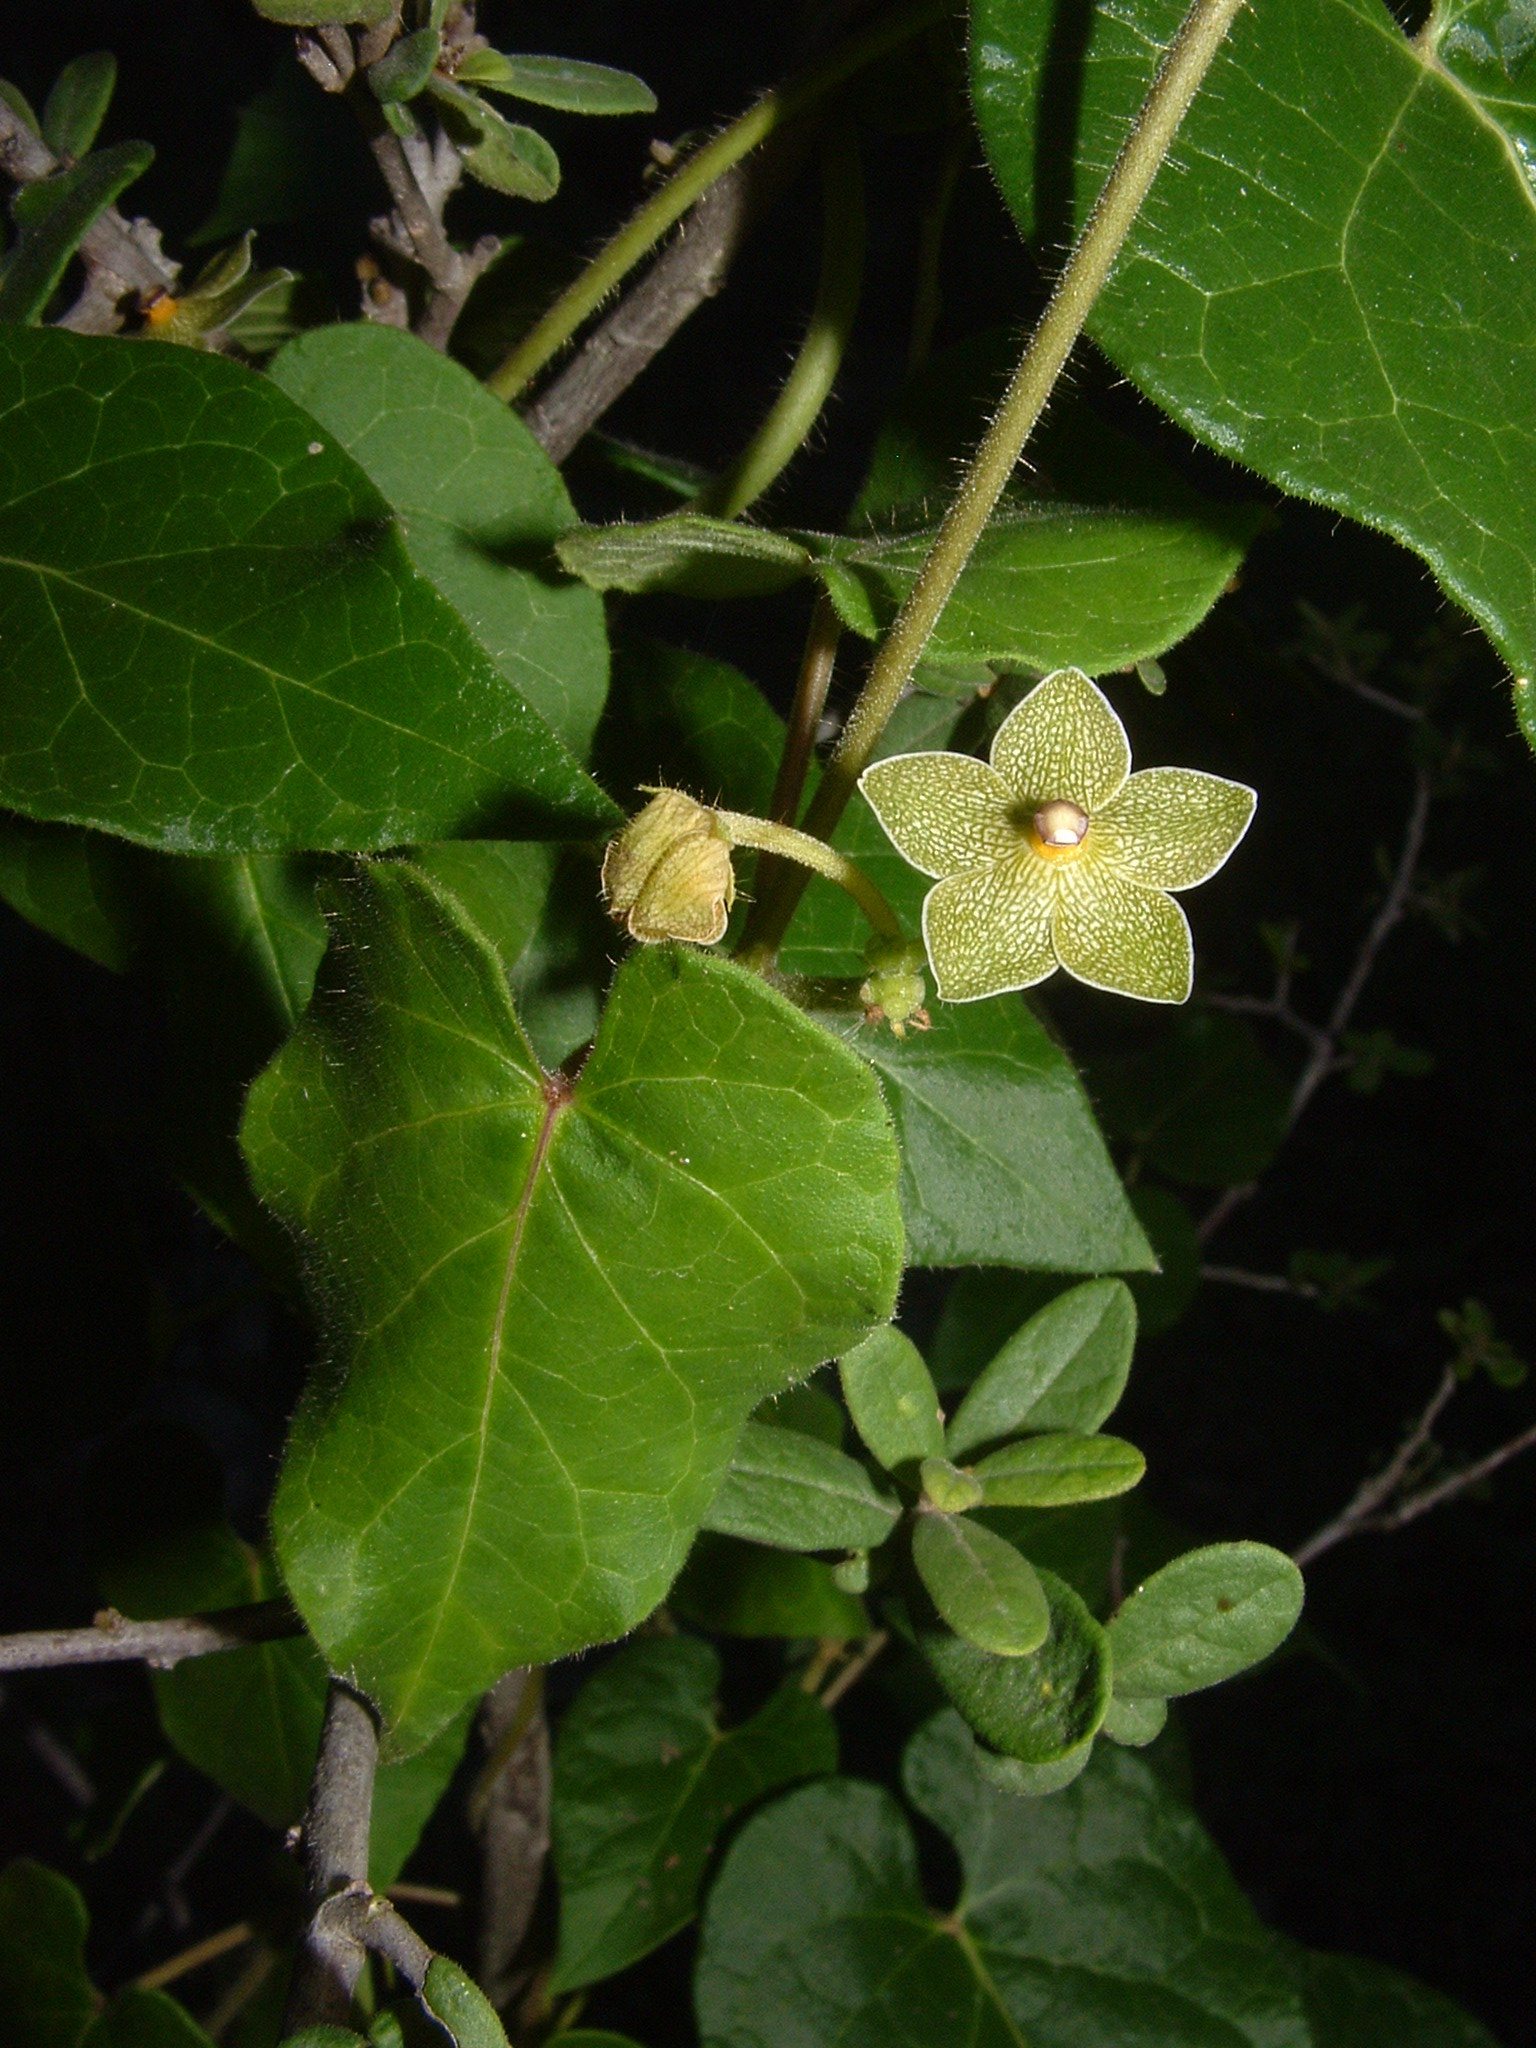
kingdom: Plantae
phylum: Tracheophyta
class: Magnoliopsida
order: Gentianales
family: Apocynaceae
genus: Dictyanthus
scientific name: Dictyanthus reticulatus
